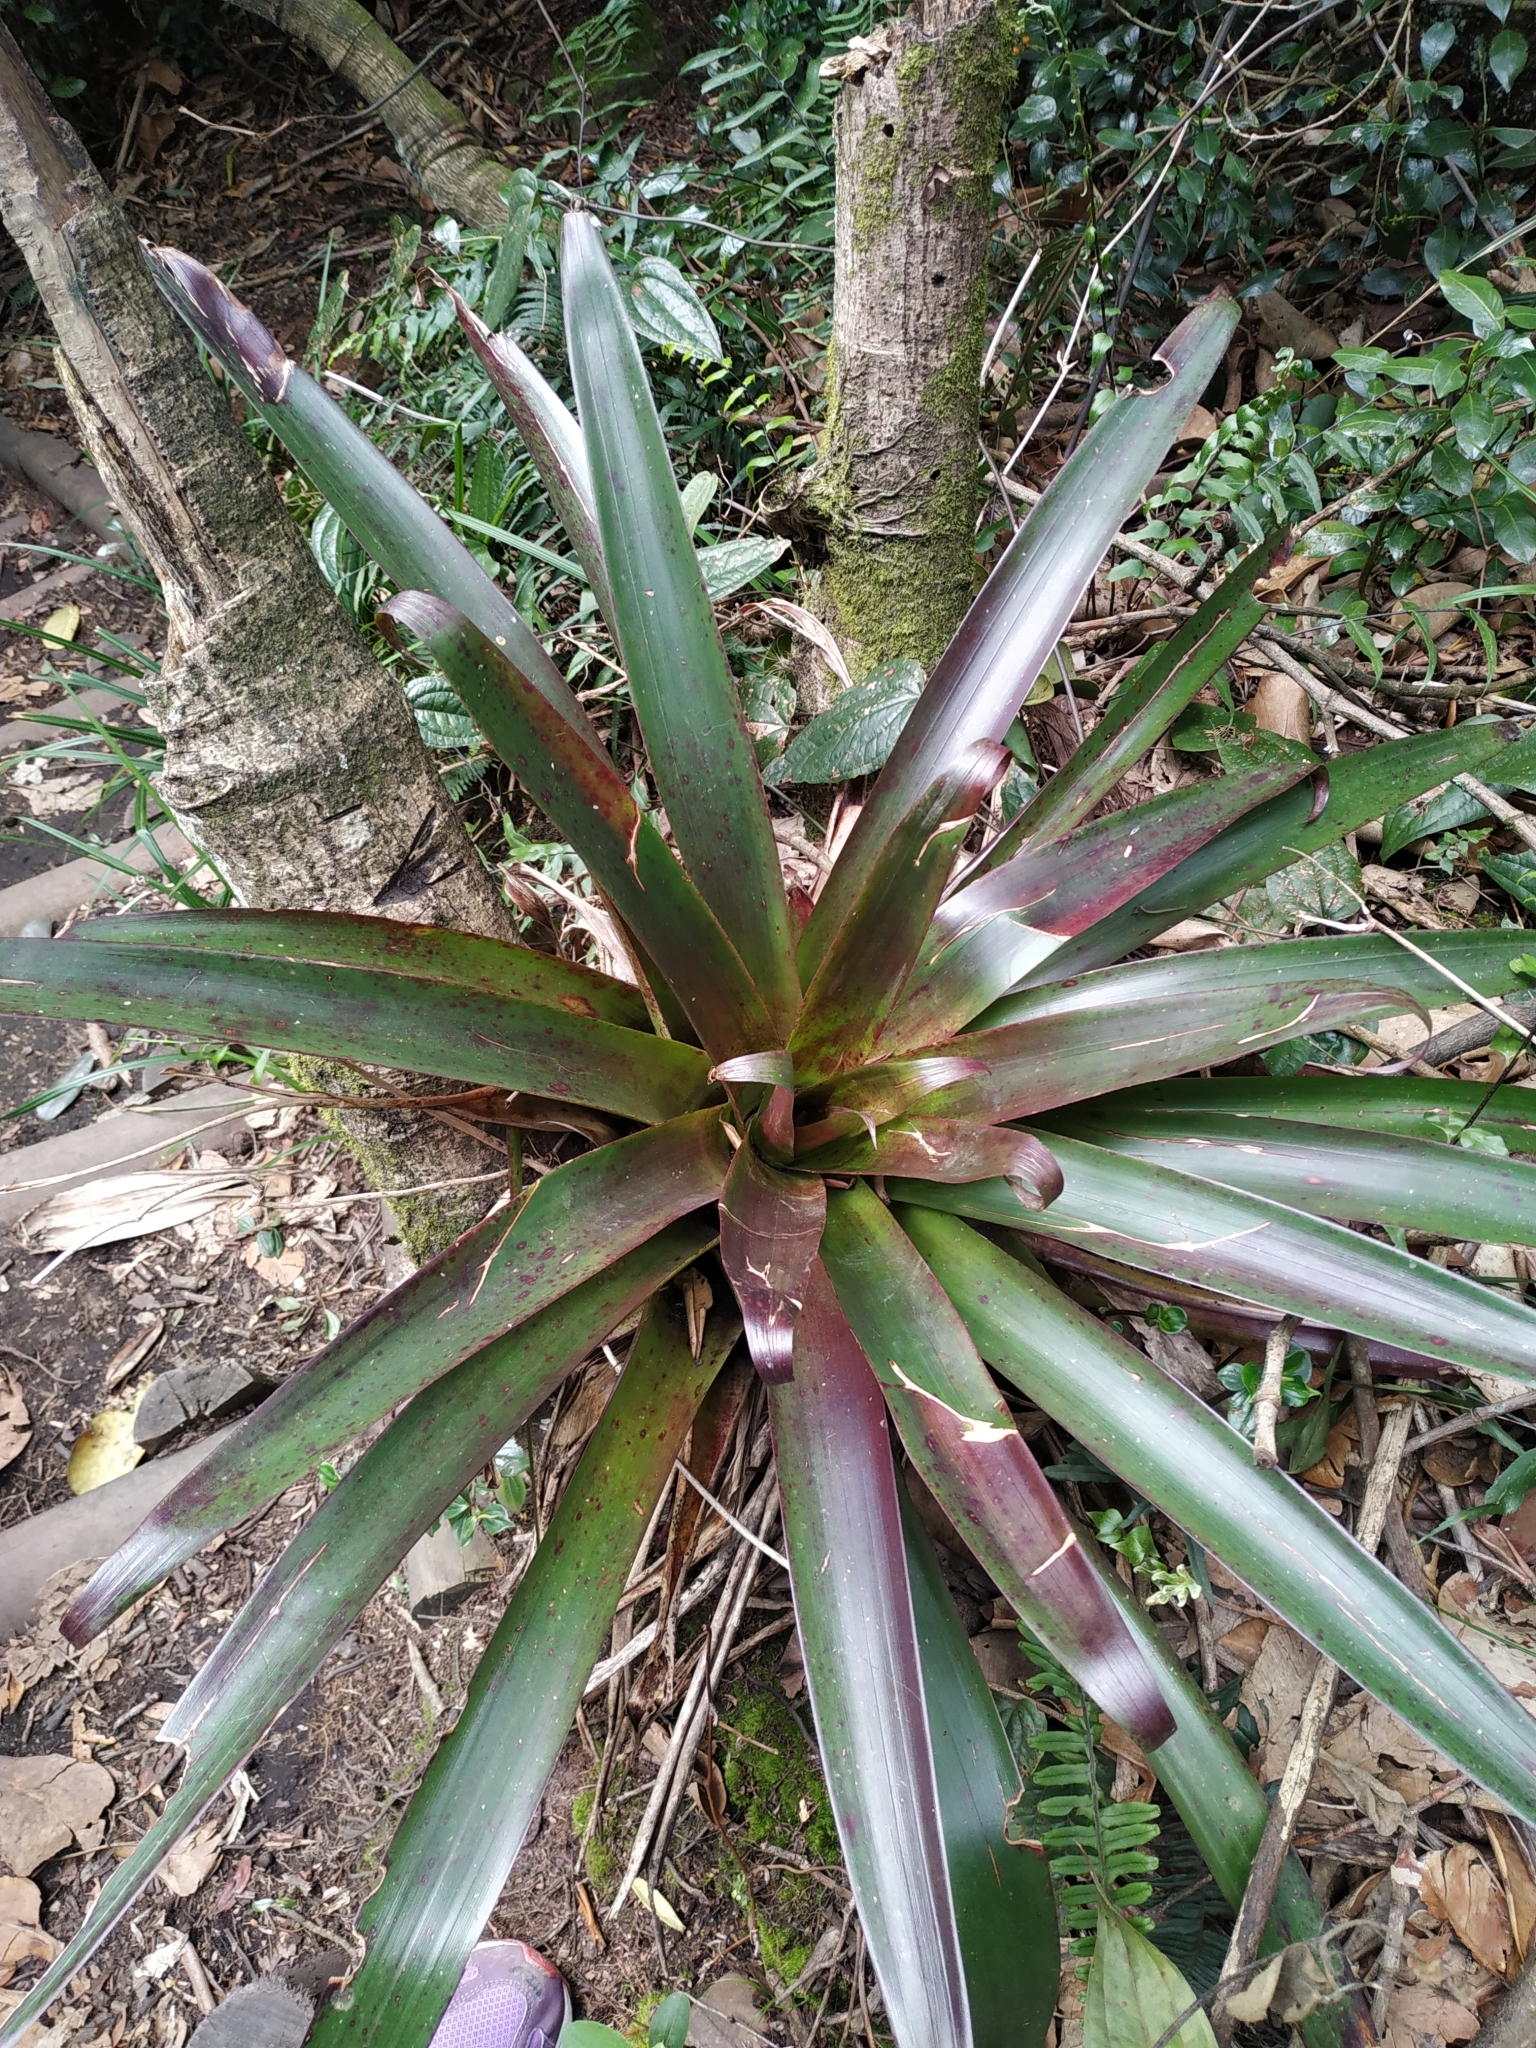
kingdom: Plantae
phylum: Tracheophyta
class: Liliopsida
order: Poales
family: Bromeliaceae
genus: Tillandsia
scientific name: Tillandsia pastensis
